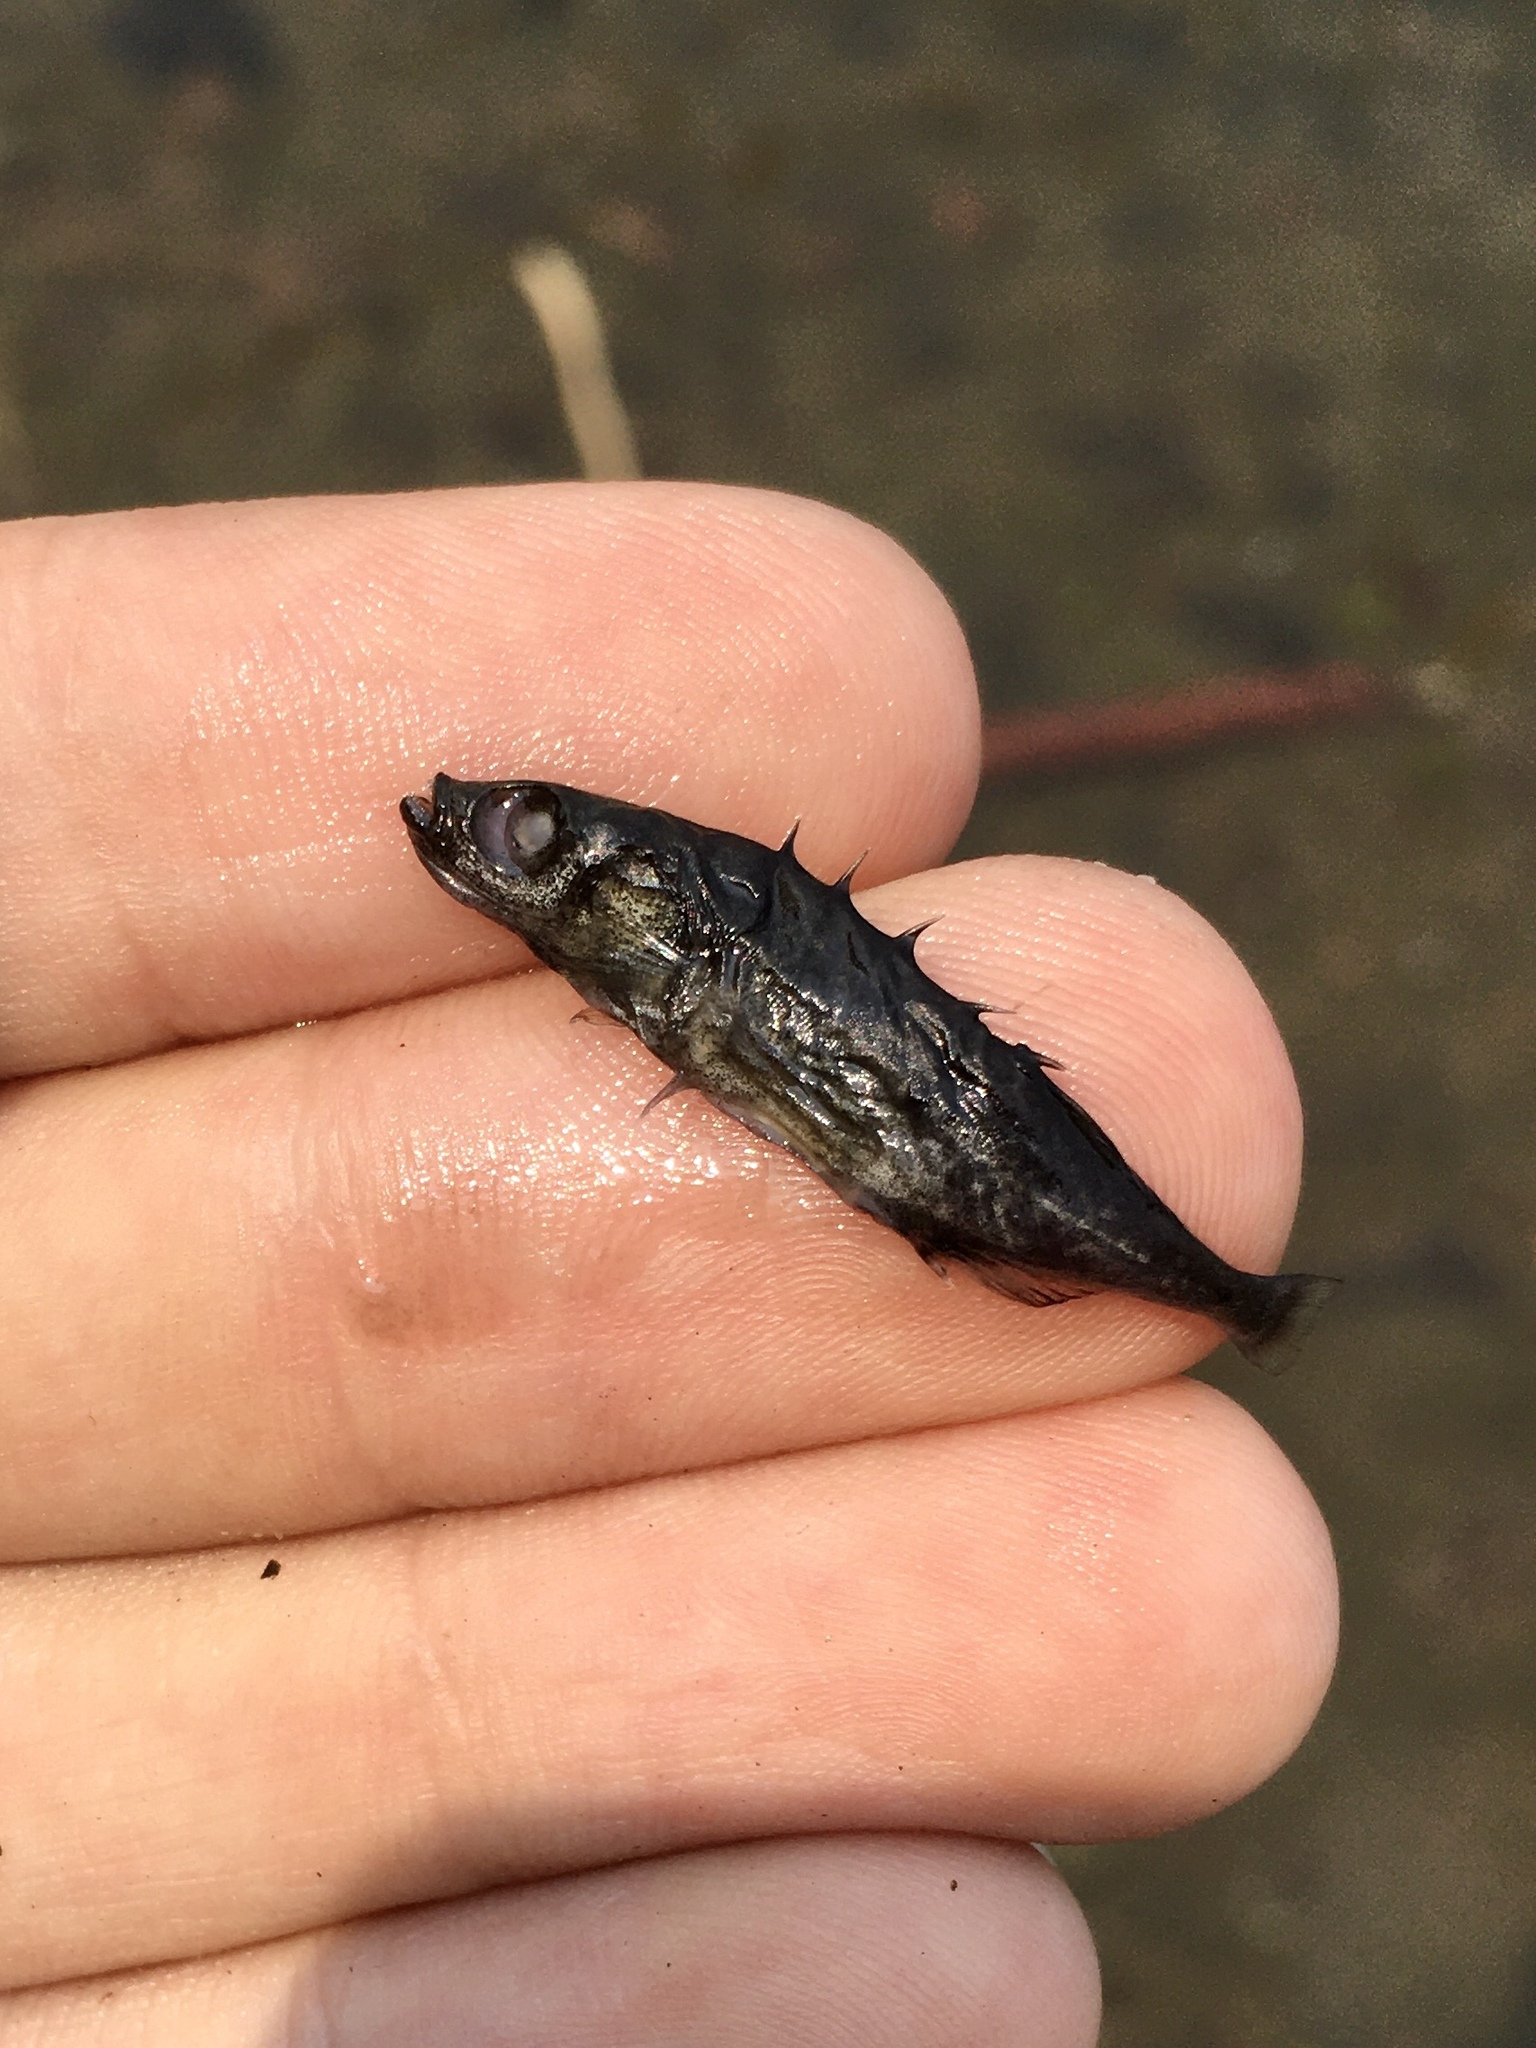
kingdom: Animalia
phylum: Chordata
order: Gasterosteiformes
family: Gasterosteidae
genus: Culaea
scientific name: Culaea inconstans
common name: Brook stickleback
